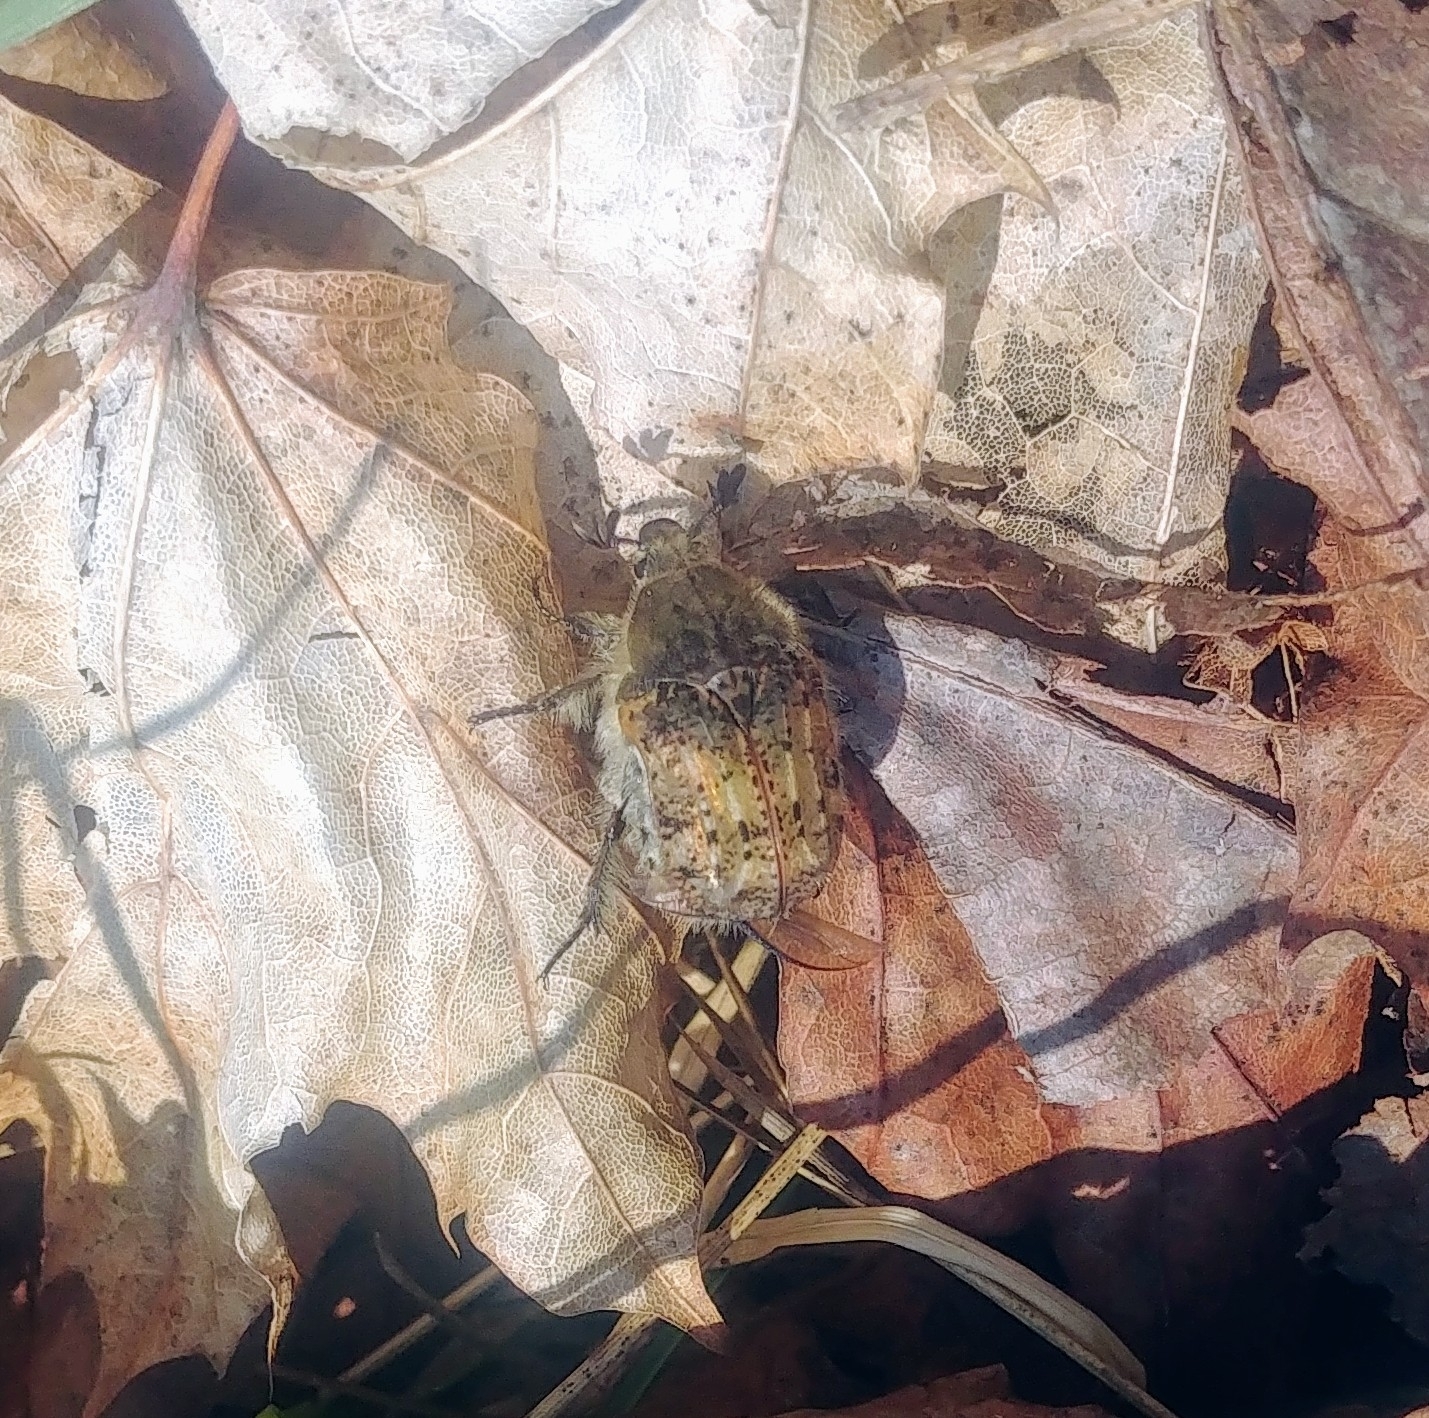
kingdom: Animalia
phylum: Arthropoda
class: Insecta
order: Coleoptera
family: Scarabaeidae
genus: Euphoria
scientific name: Euphoria inda
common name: Bumble flower beetle
